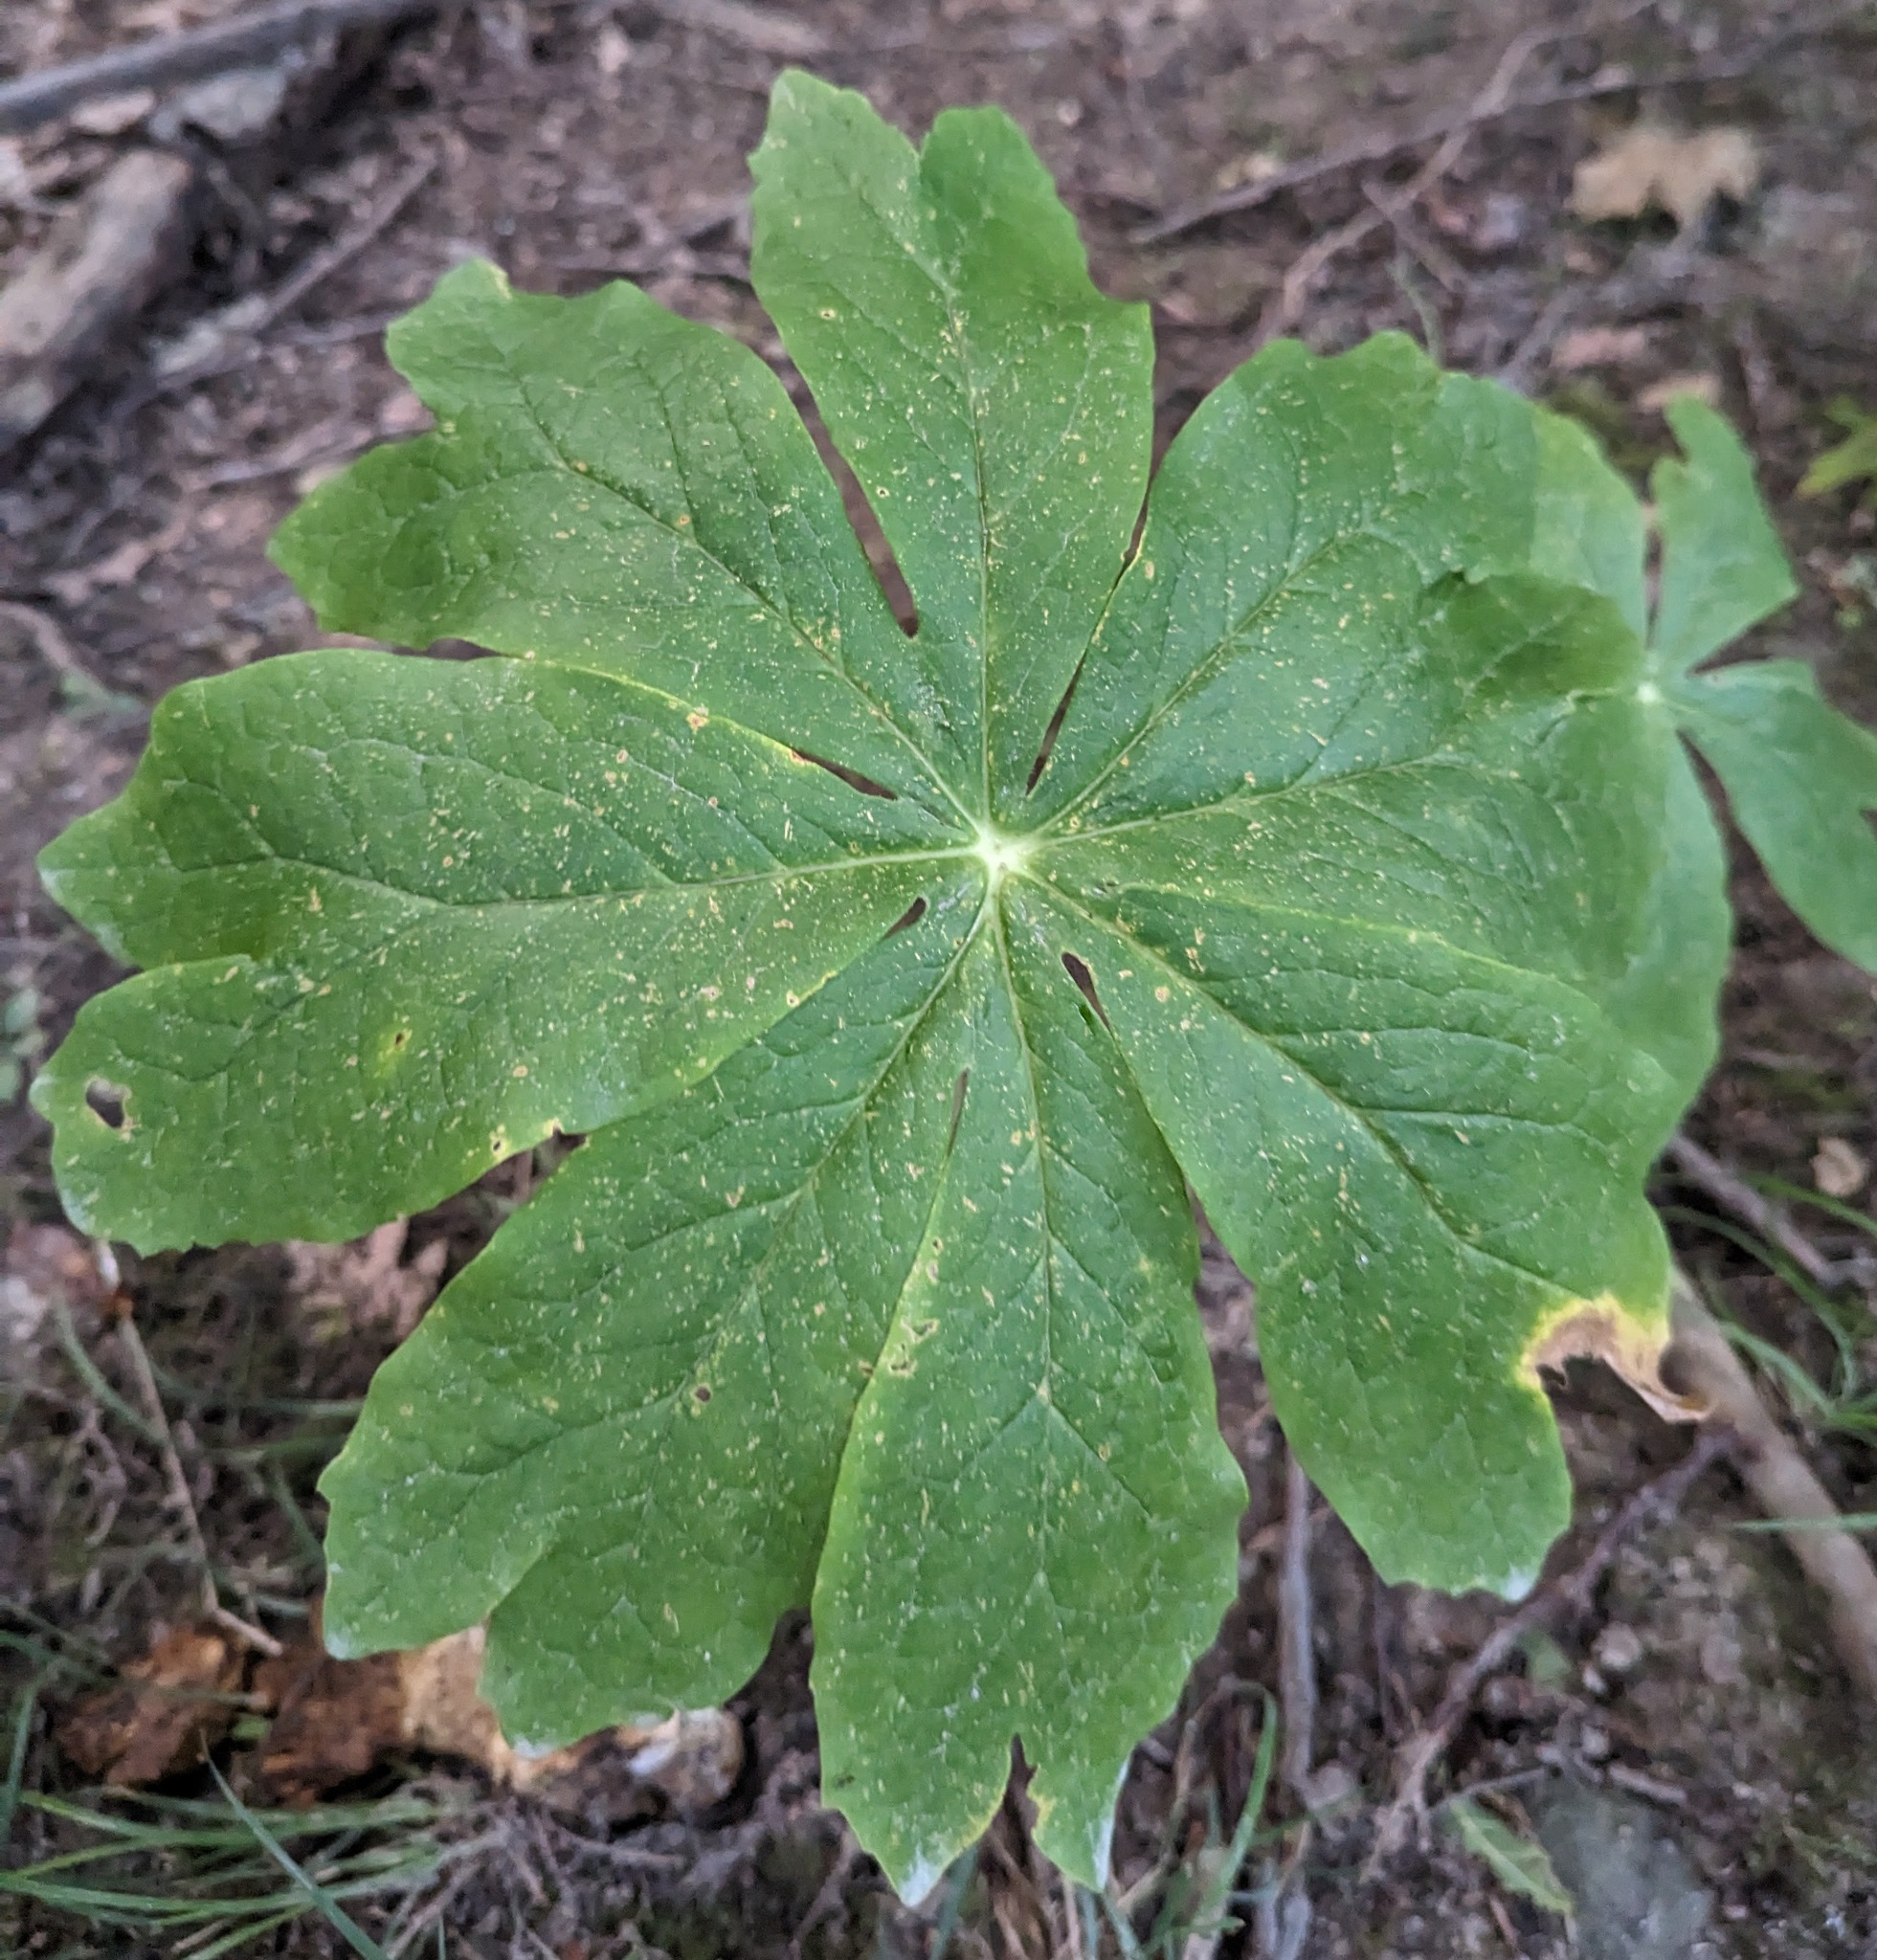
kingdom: Plantae
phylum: Tracheophyta
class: Magnoliopsida
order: Ranunculales
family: Berberidaceae
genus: Podophyllum
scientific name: Podophyllum peltatum
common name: Wild mandrake
